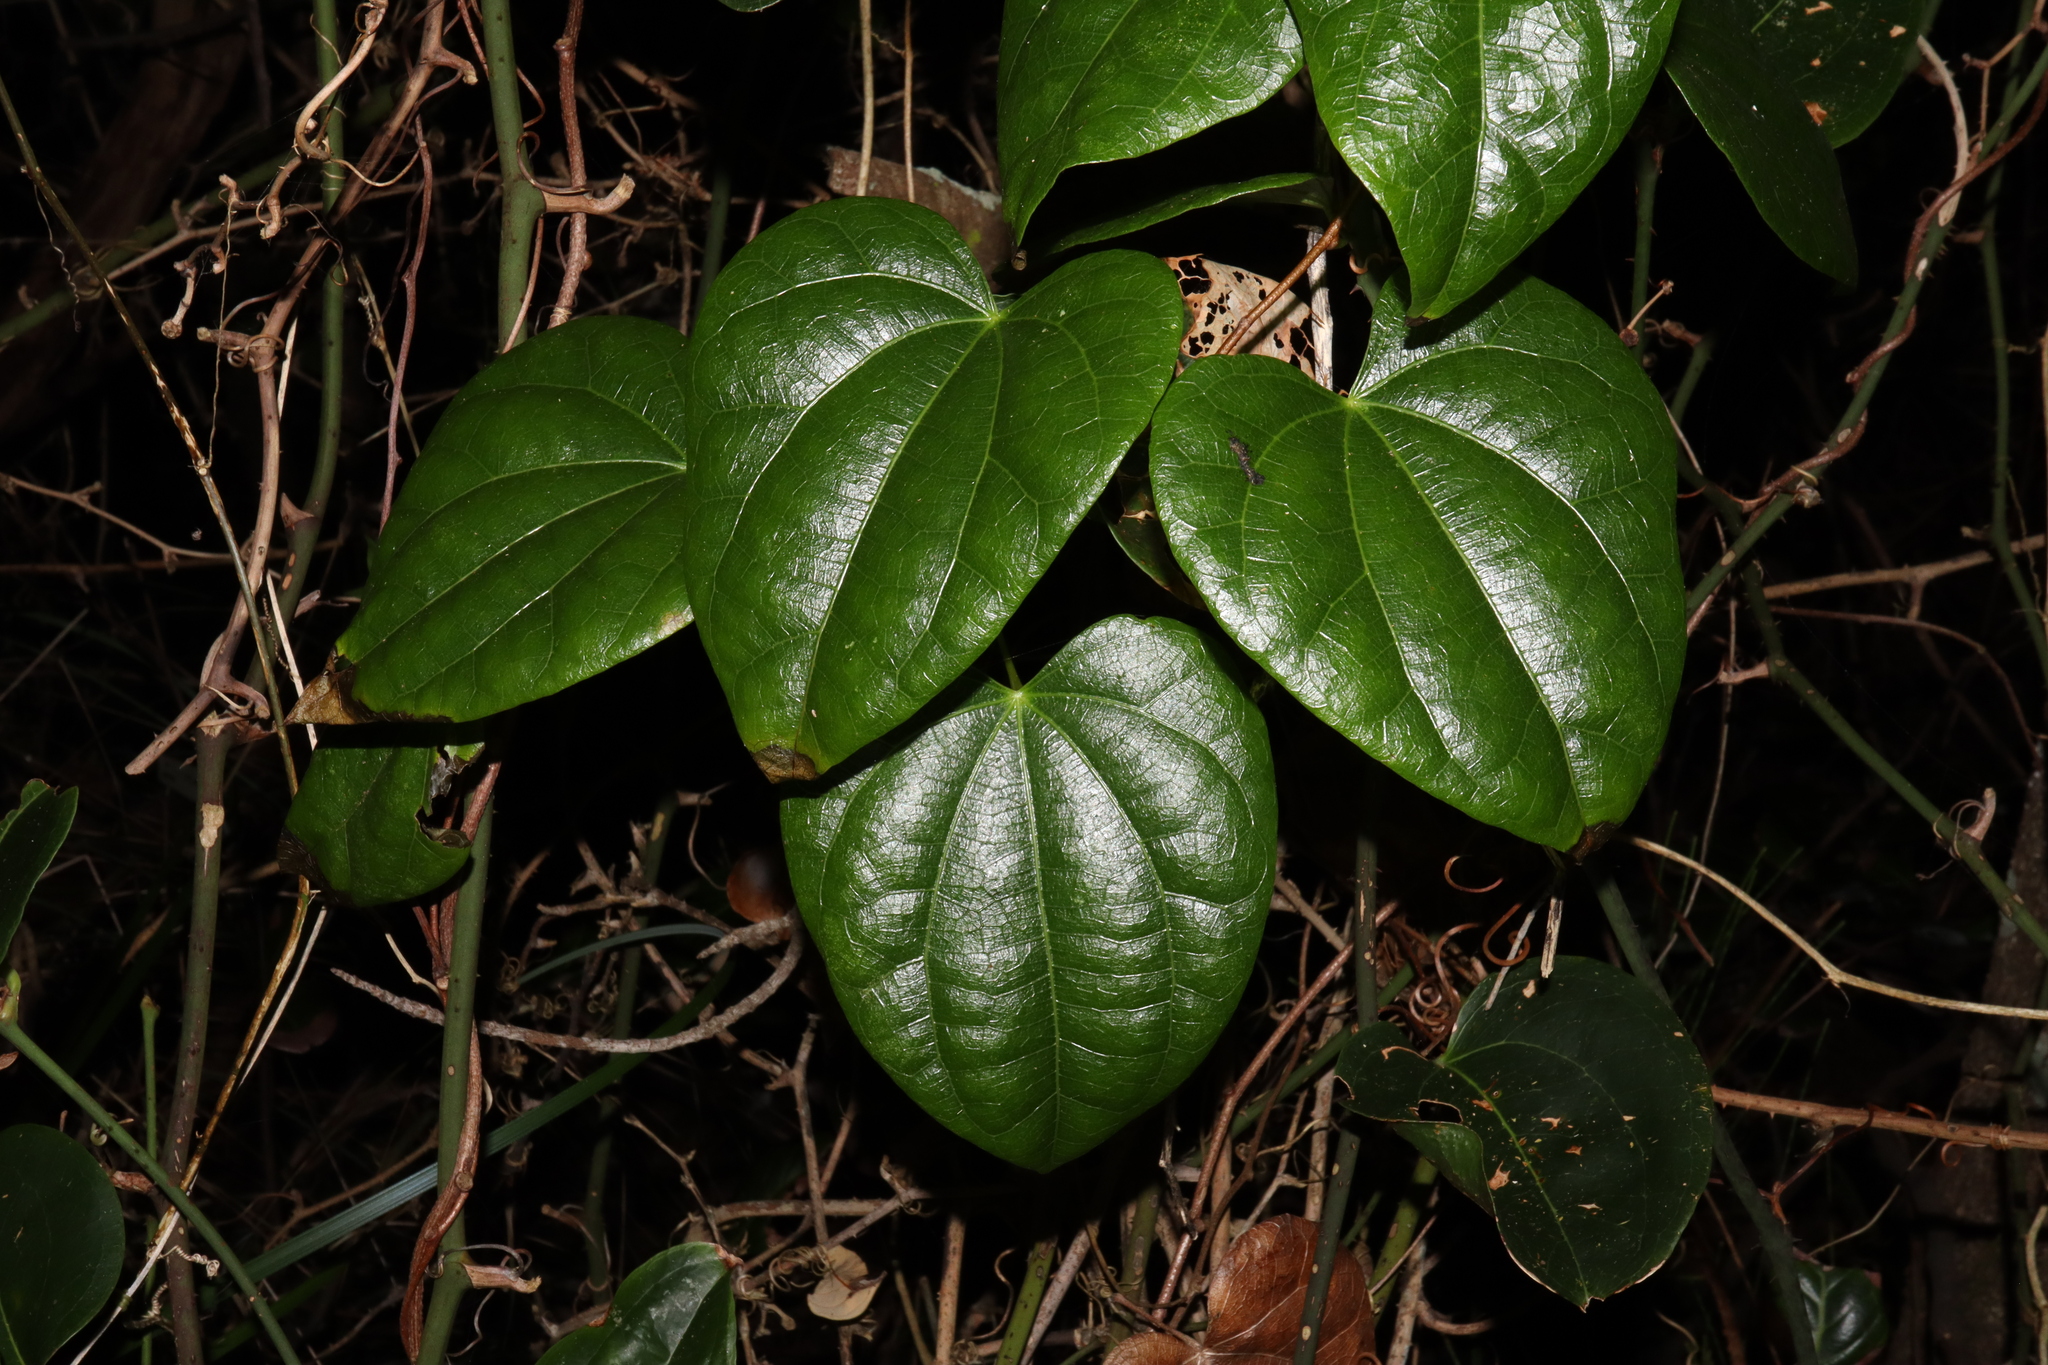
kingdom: Plantae
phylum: Tracheophyta
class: Magnoliopsida
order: Ranunculales
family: Menispermaceae
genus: Sarcopetalum
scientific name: Sarcopetalum harveyanum
